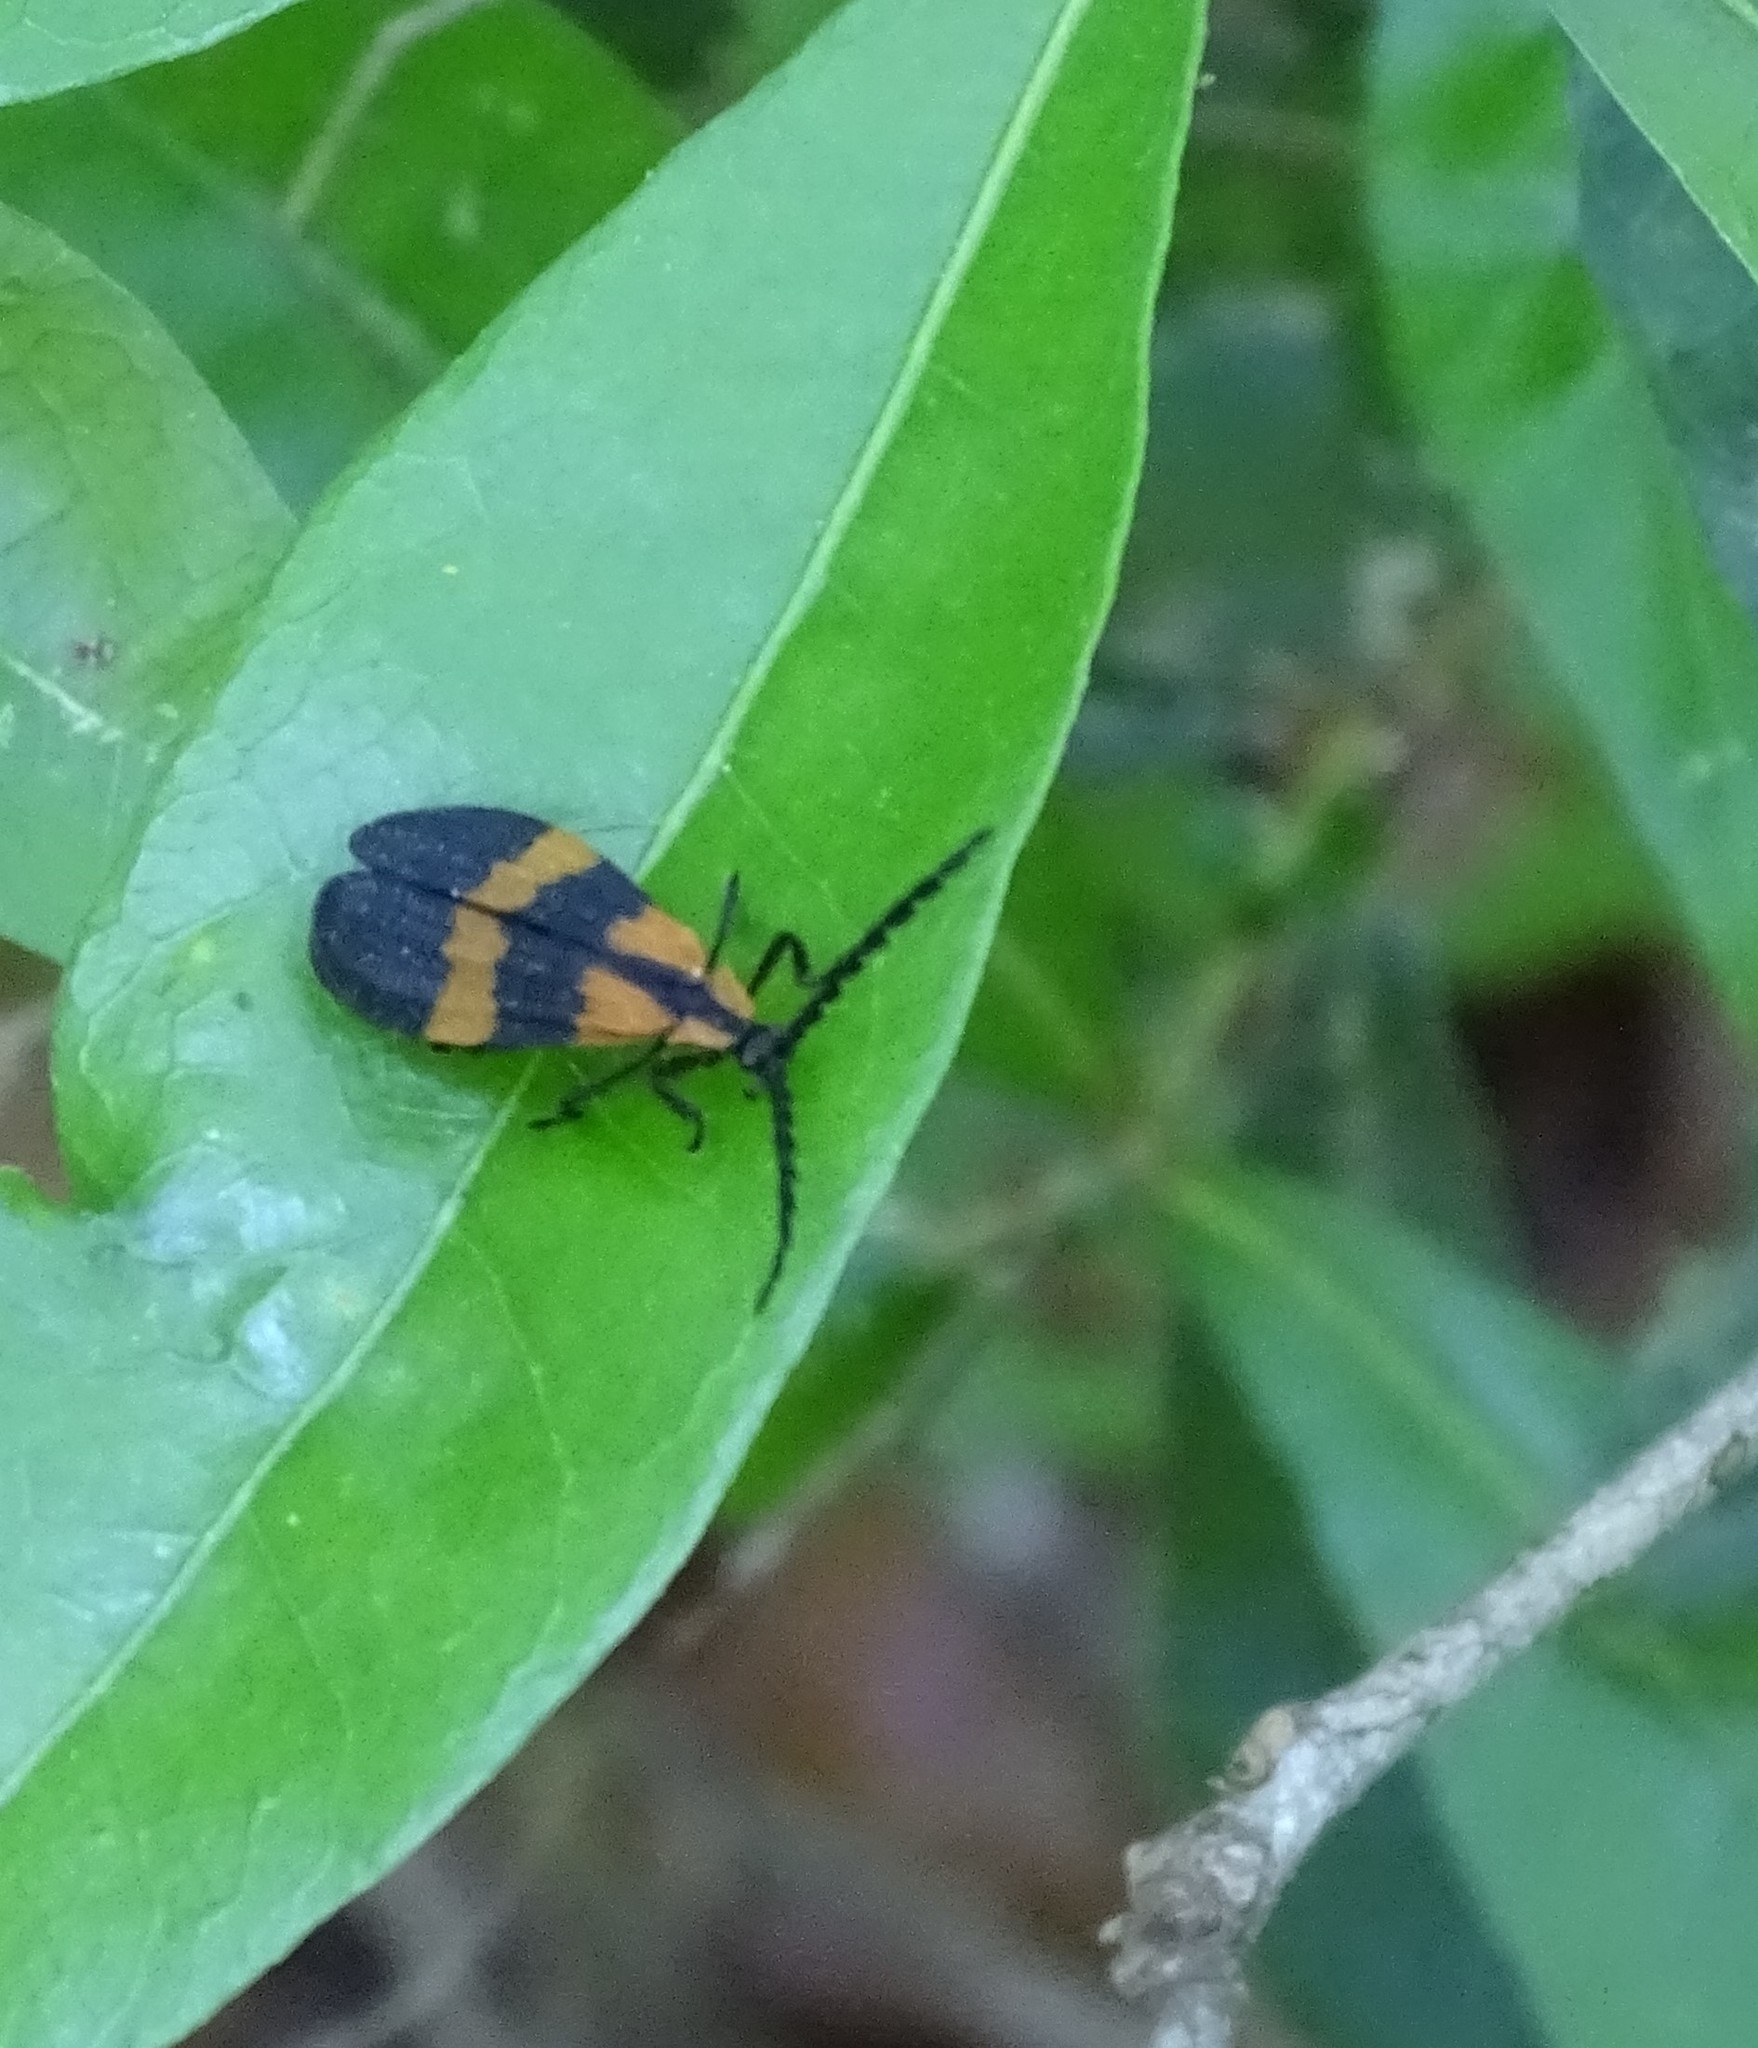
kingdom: Animalia
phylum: Arthropoda
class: Insecta
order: Coleoptera
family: Lycidae
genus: Calopteron
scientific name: Calopteron discrepans
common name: Banded net-winged beetle
